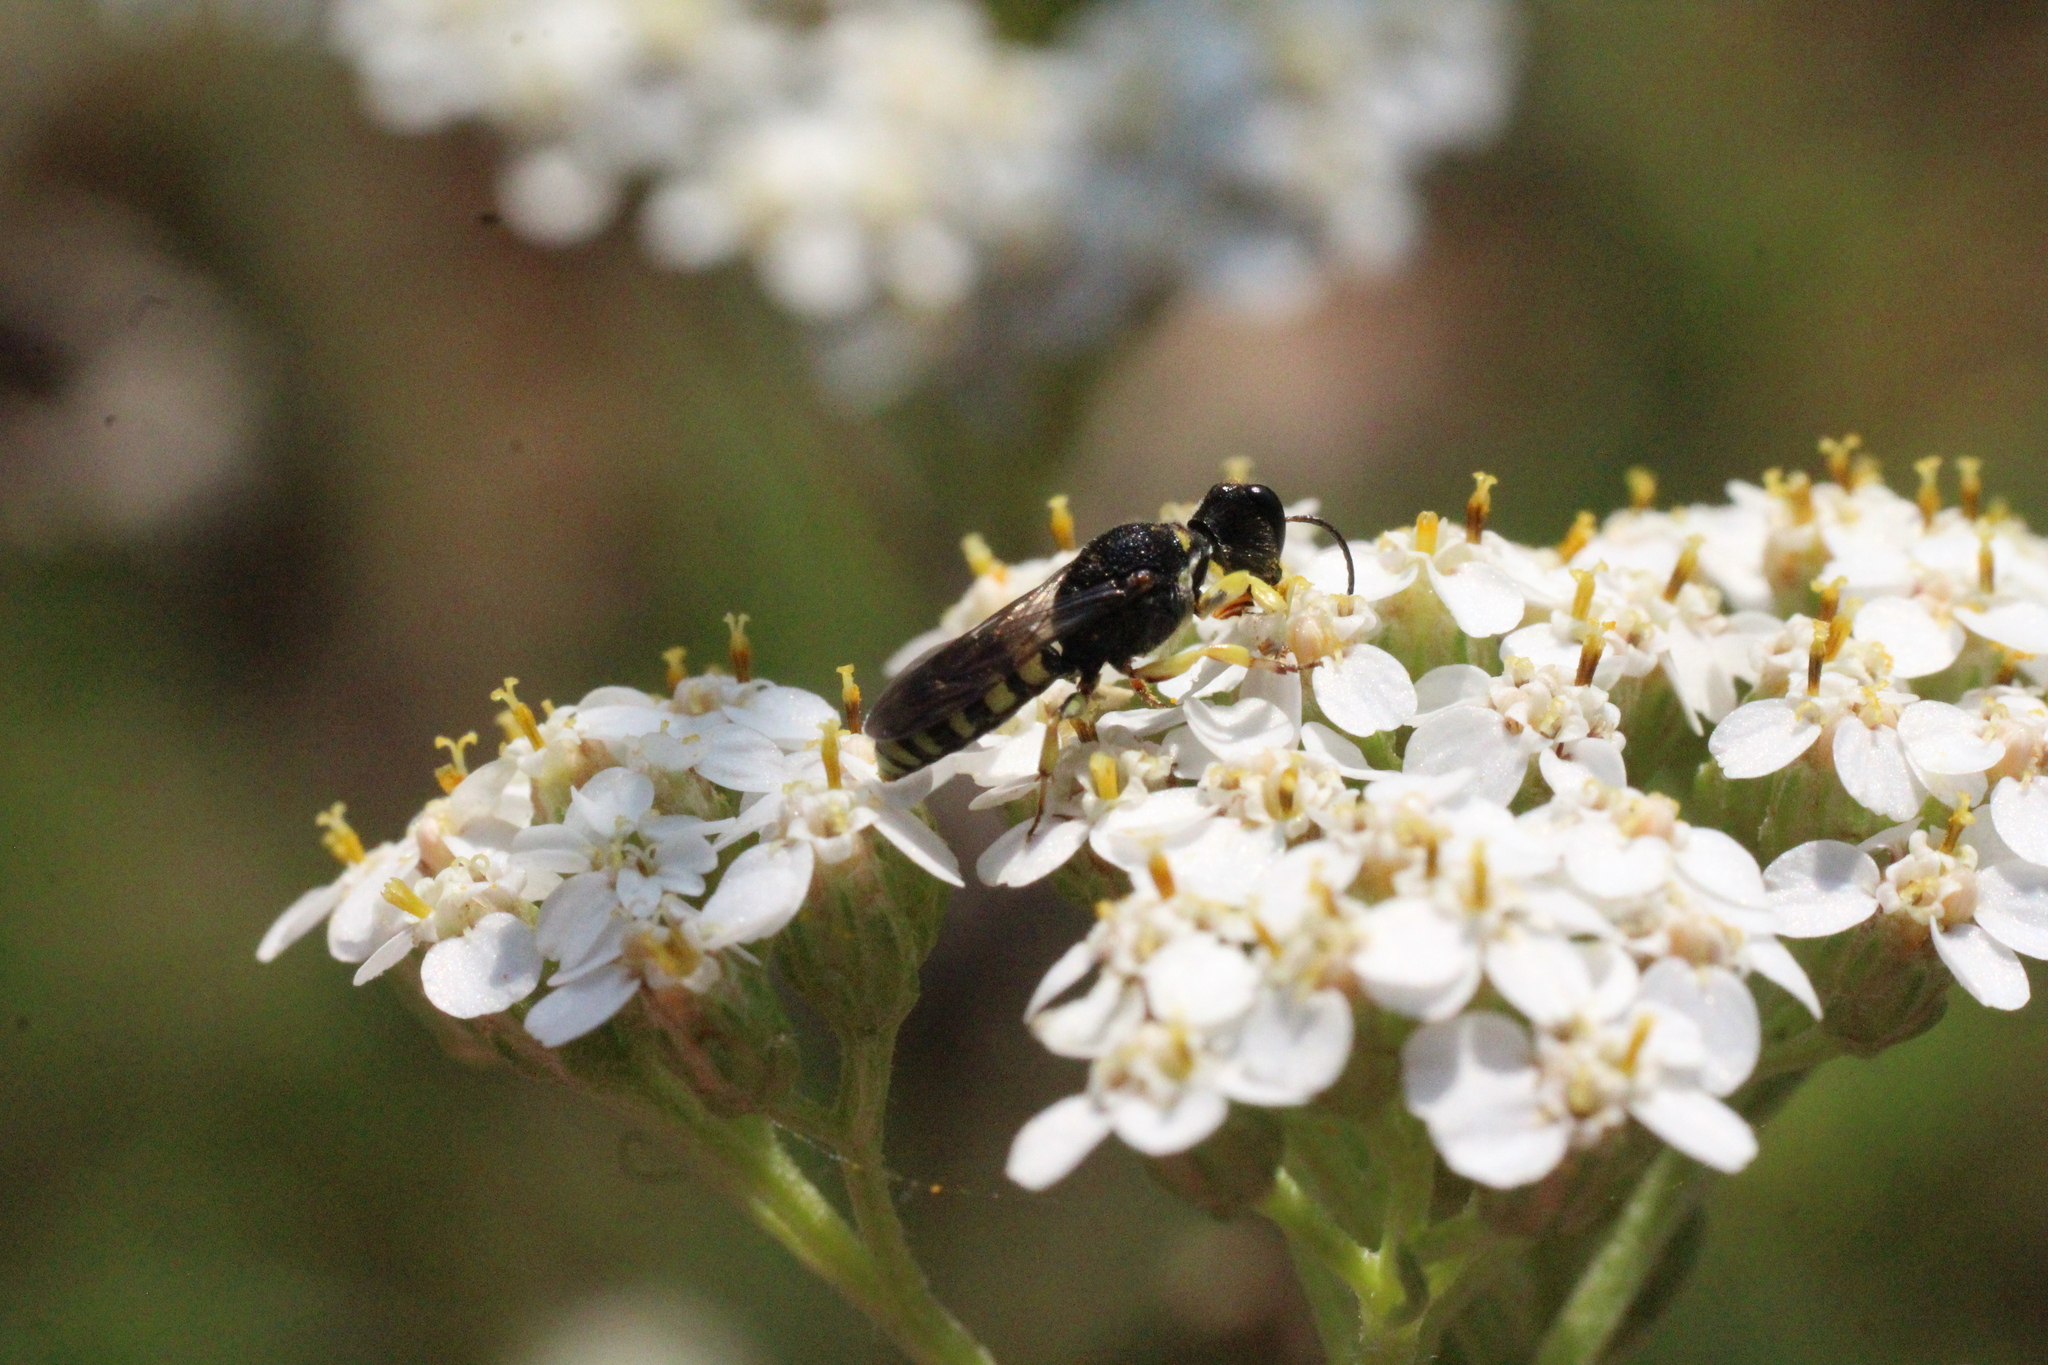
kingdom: Animalia
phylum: Arthropoda
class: Insecta
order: Hymenoptera
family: Crabronidae
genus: Lestica
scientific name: Lestica clypeata
